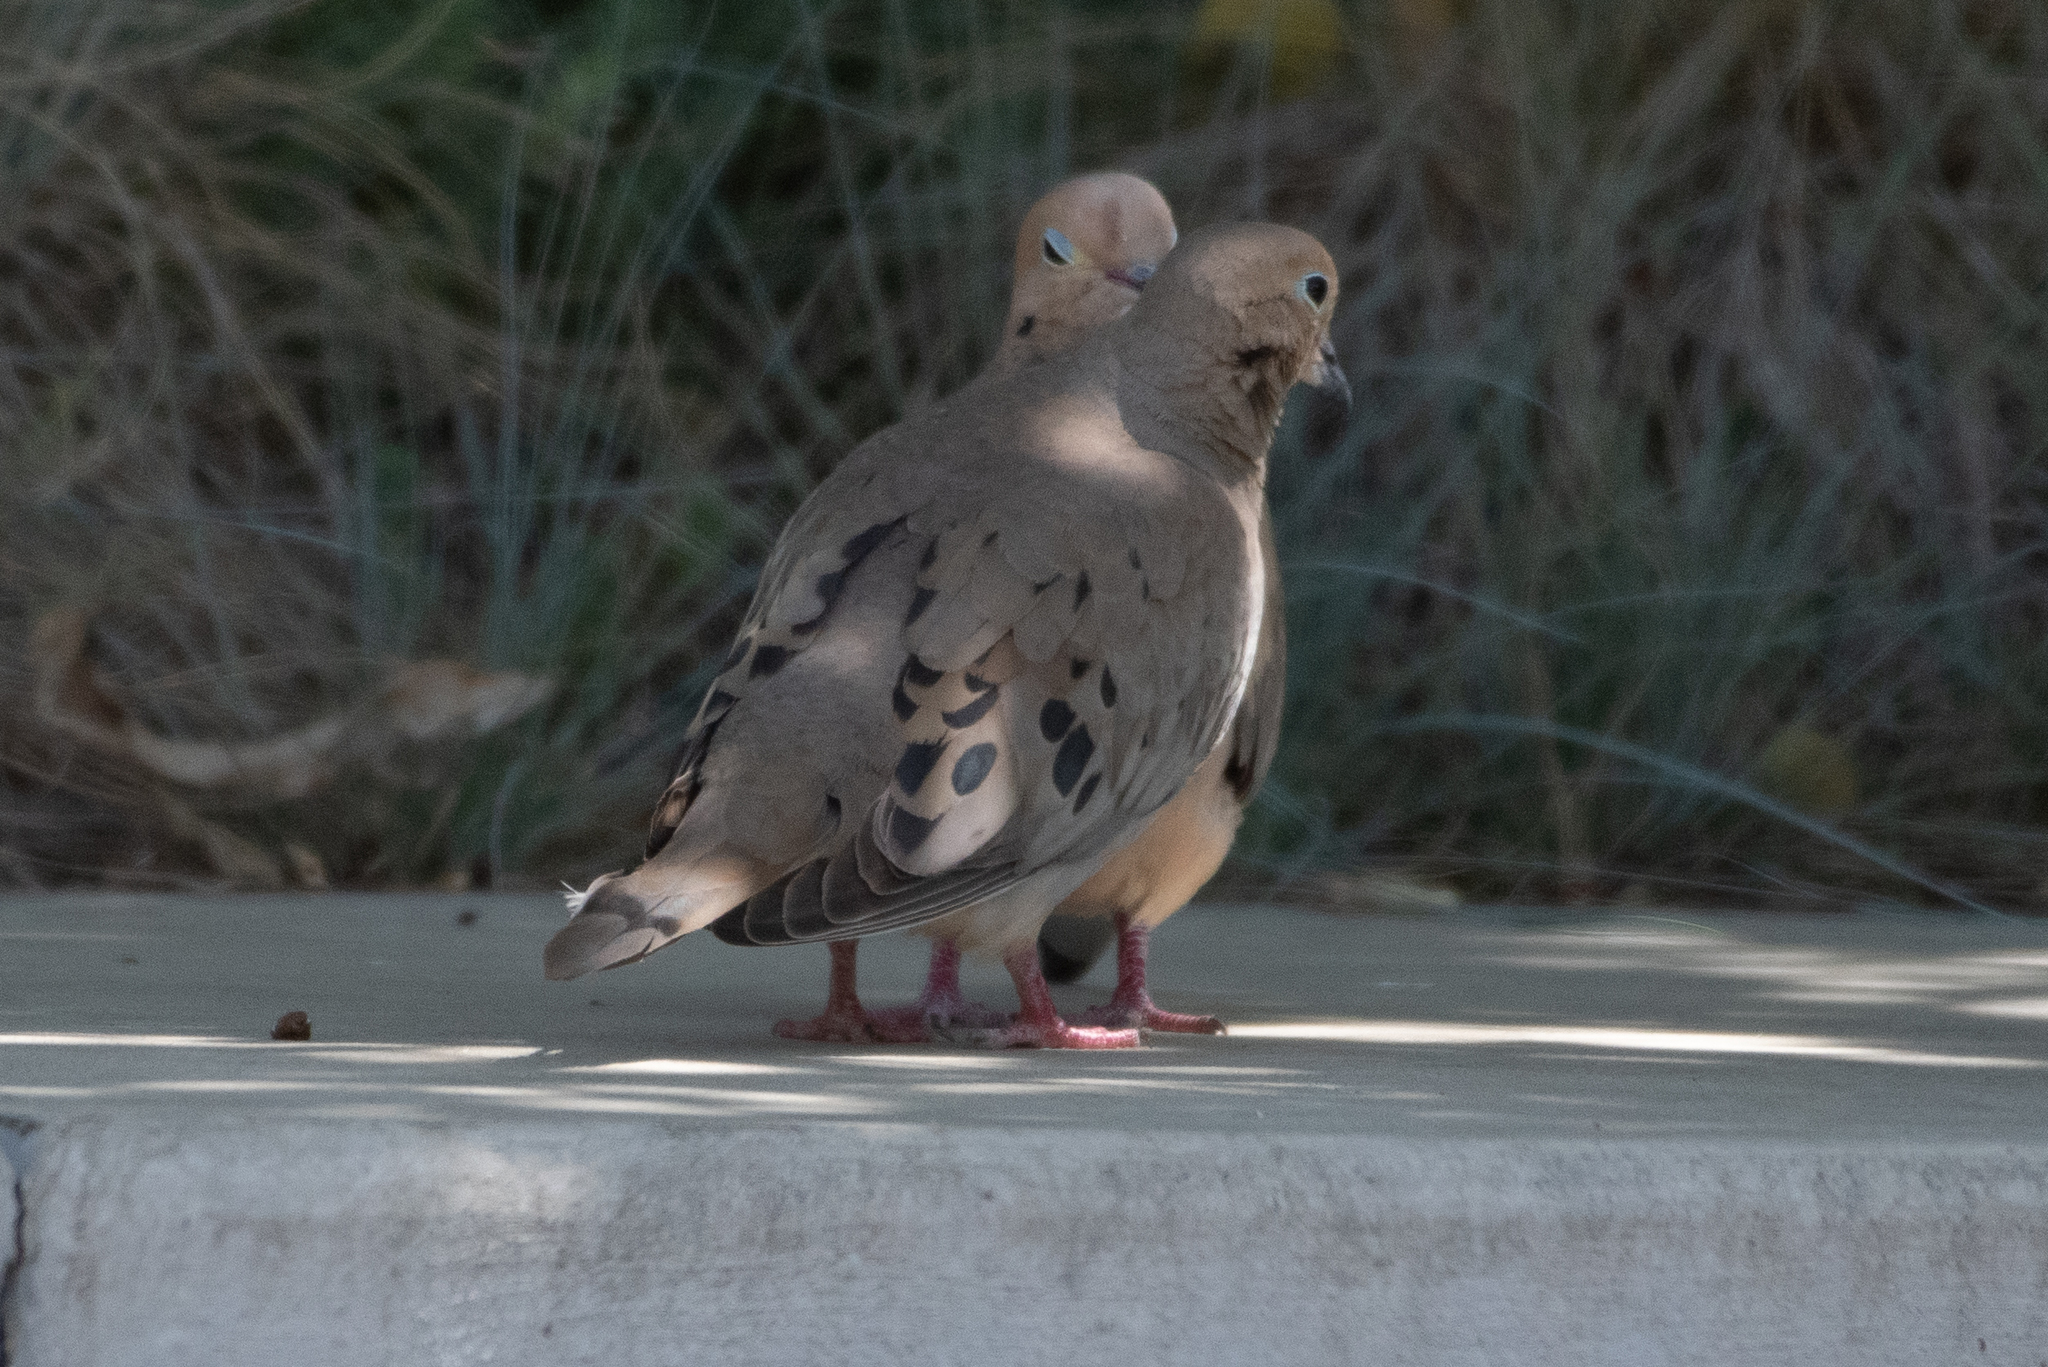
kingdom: Animalia
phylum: Chordata
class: Aves
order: Columbiformes
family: Columbidae
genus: Zenaida
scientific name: Zenaida macroura
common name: Mourning dove
